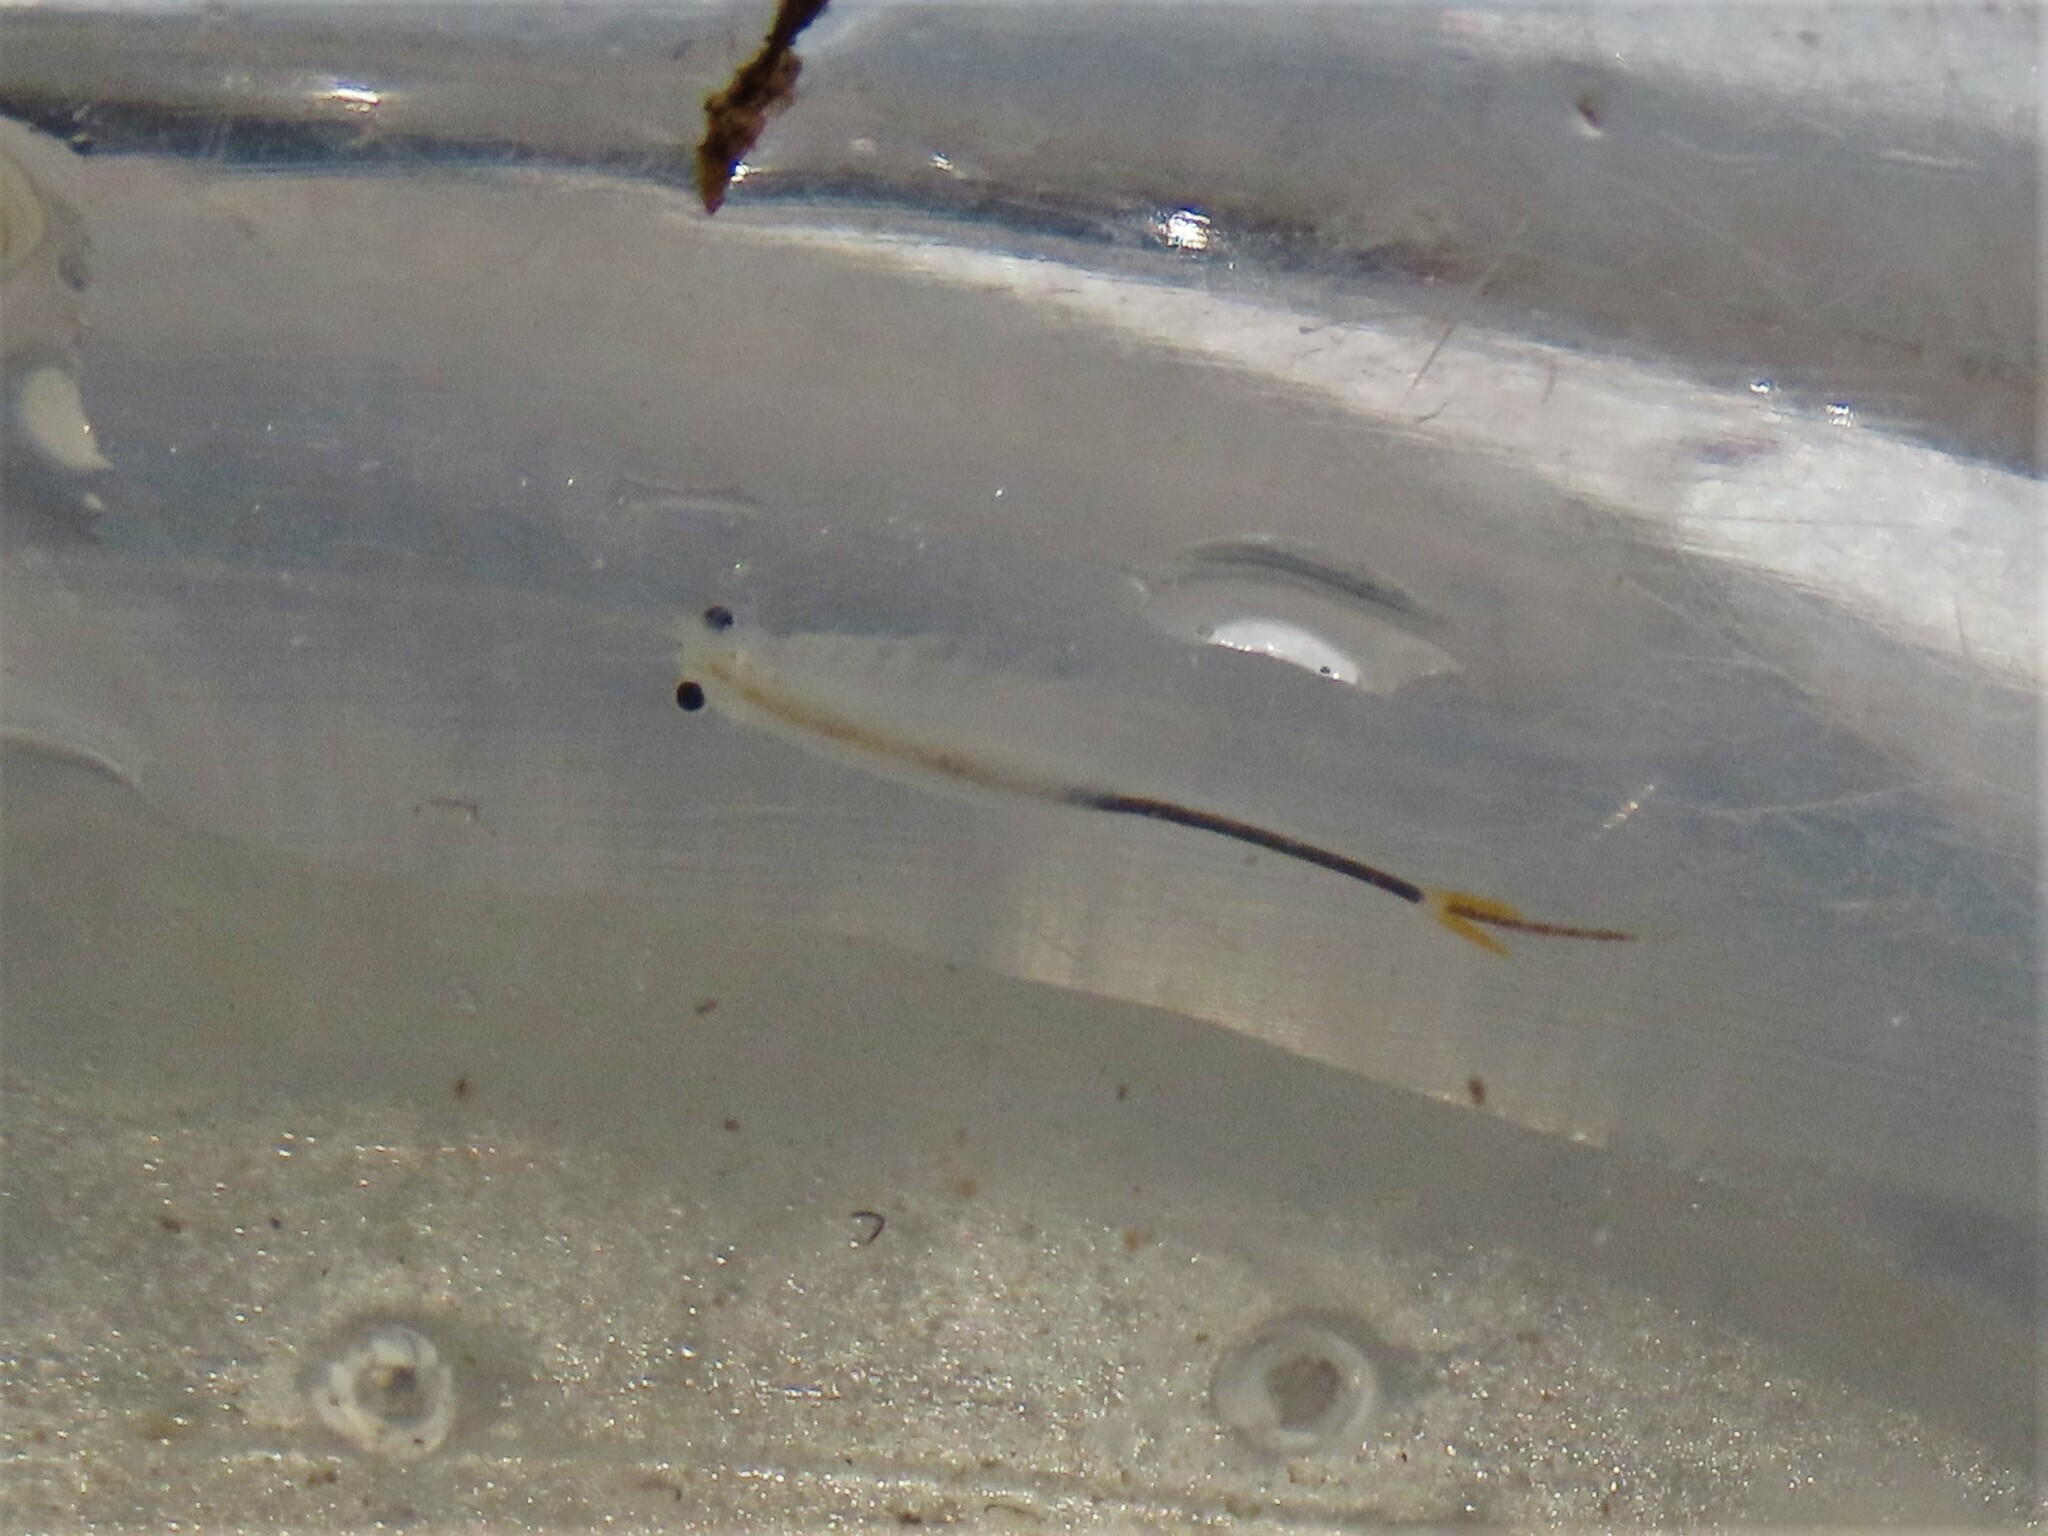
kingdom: Animalia
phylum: Arthropoda
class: Branchiopoda
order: Anostraca
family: Streptocephalidae
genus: Streptocephalus
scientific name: Streptocephalus sealii
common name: Spiny-tail fairy shrimp
